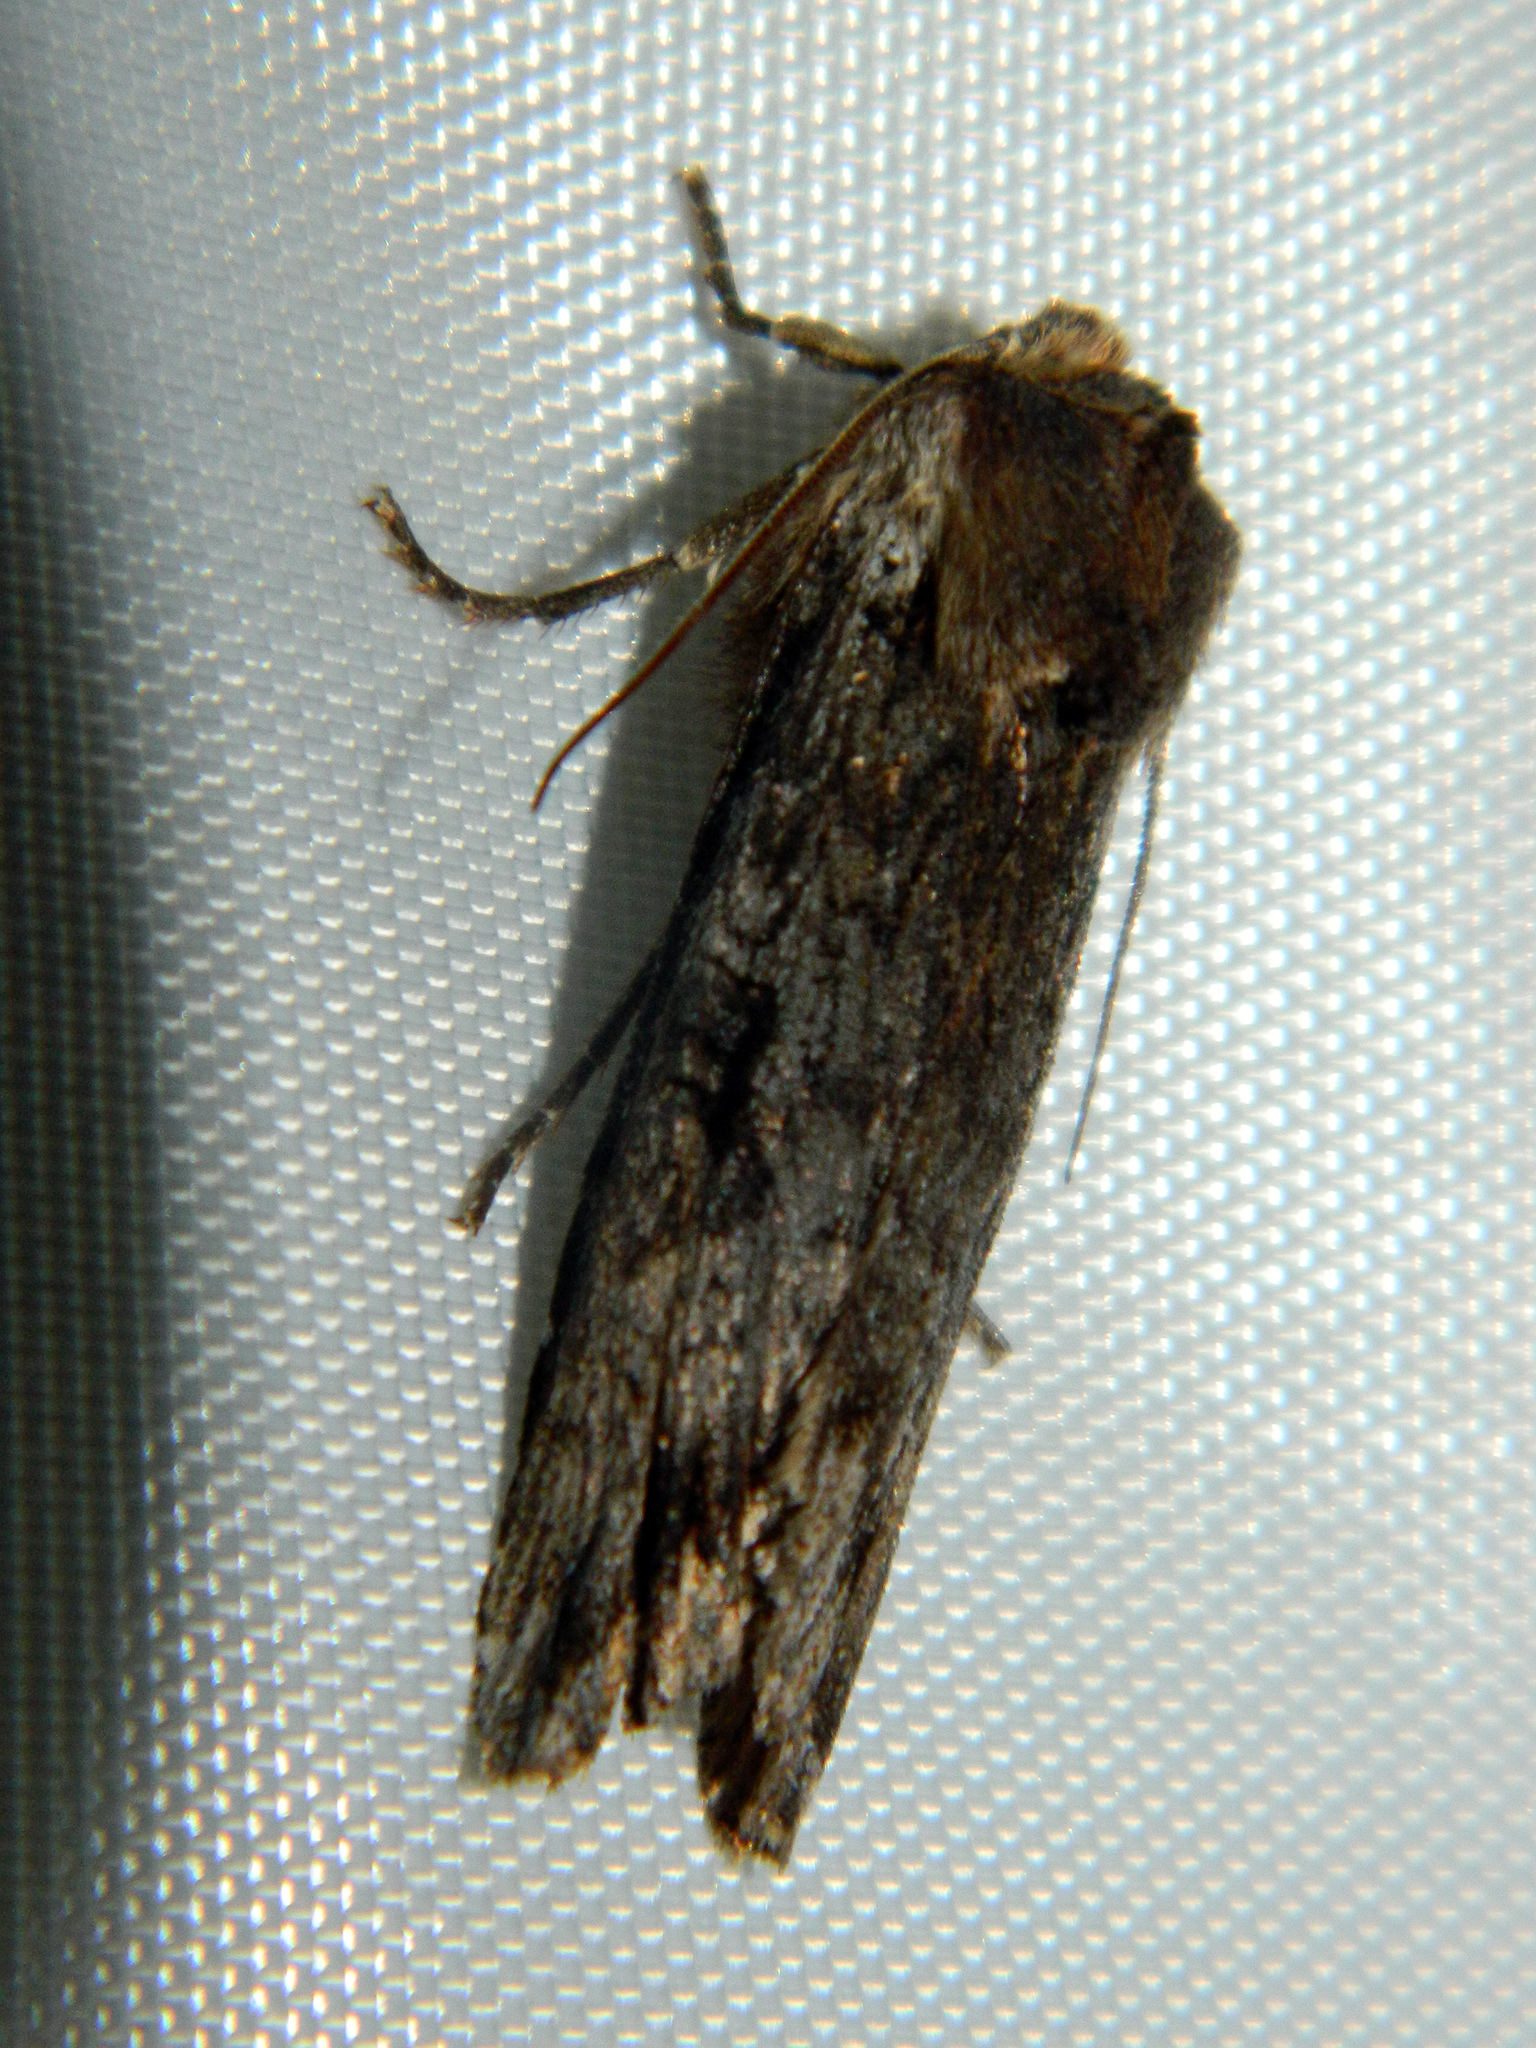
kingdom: Animalia
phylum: Arthropoda
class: Insecta
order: Lepidoptera
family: Noctuidae
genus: Xylena
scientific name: Xylena thoracica
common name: Acadian swordgrass moth
